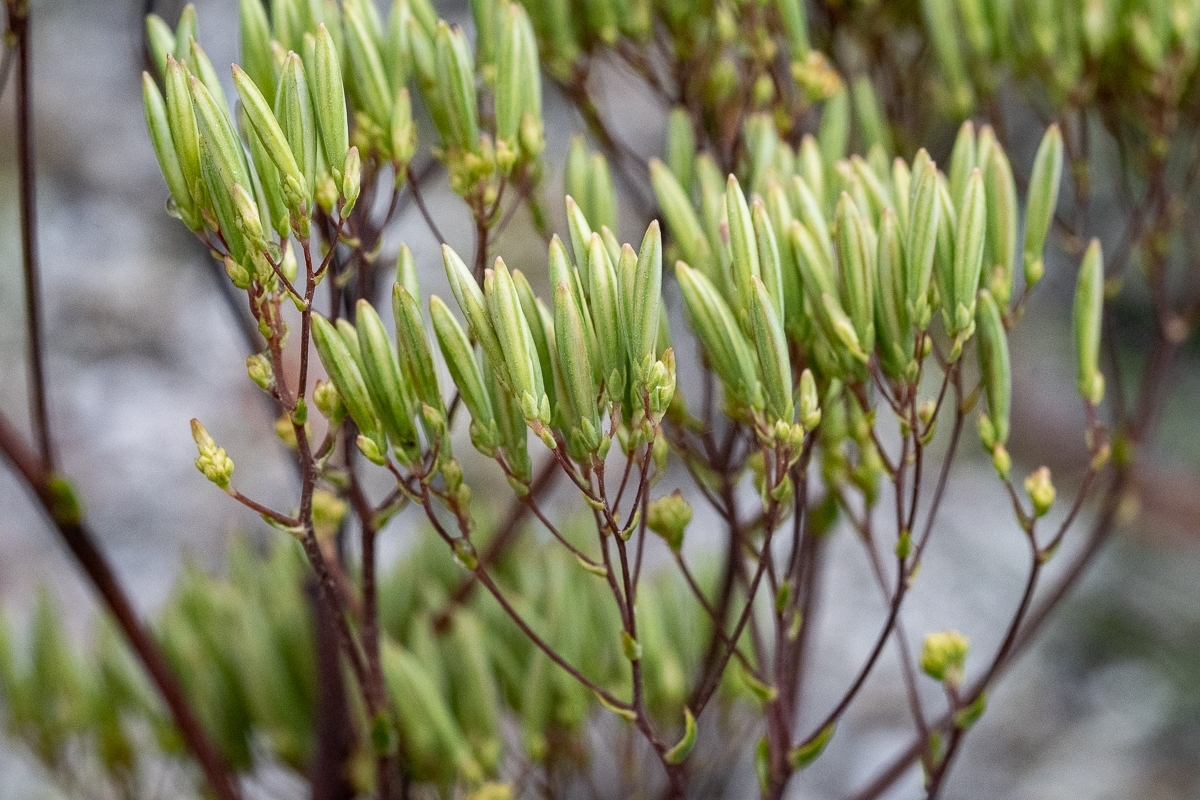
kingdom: Plantae
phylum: Tracheophyta
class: Magnoliopsida
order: Asterales
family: Asteraceae
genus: Corymbium
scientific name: Corymbium glabrum
